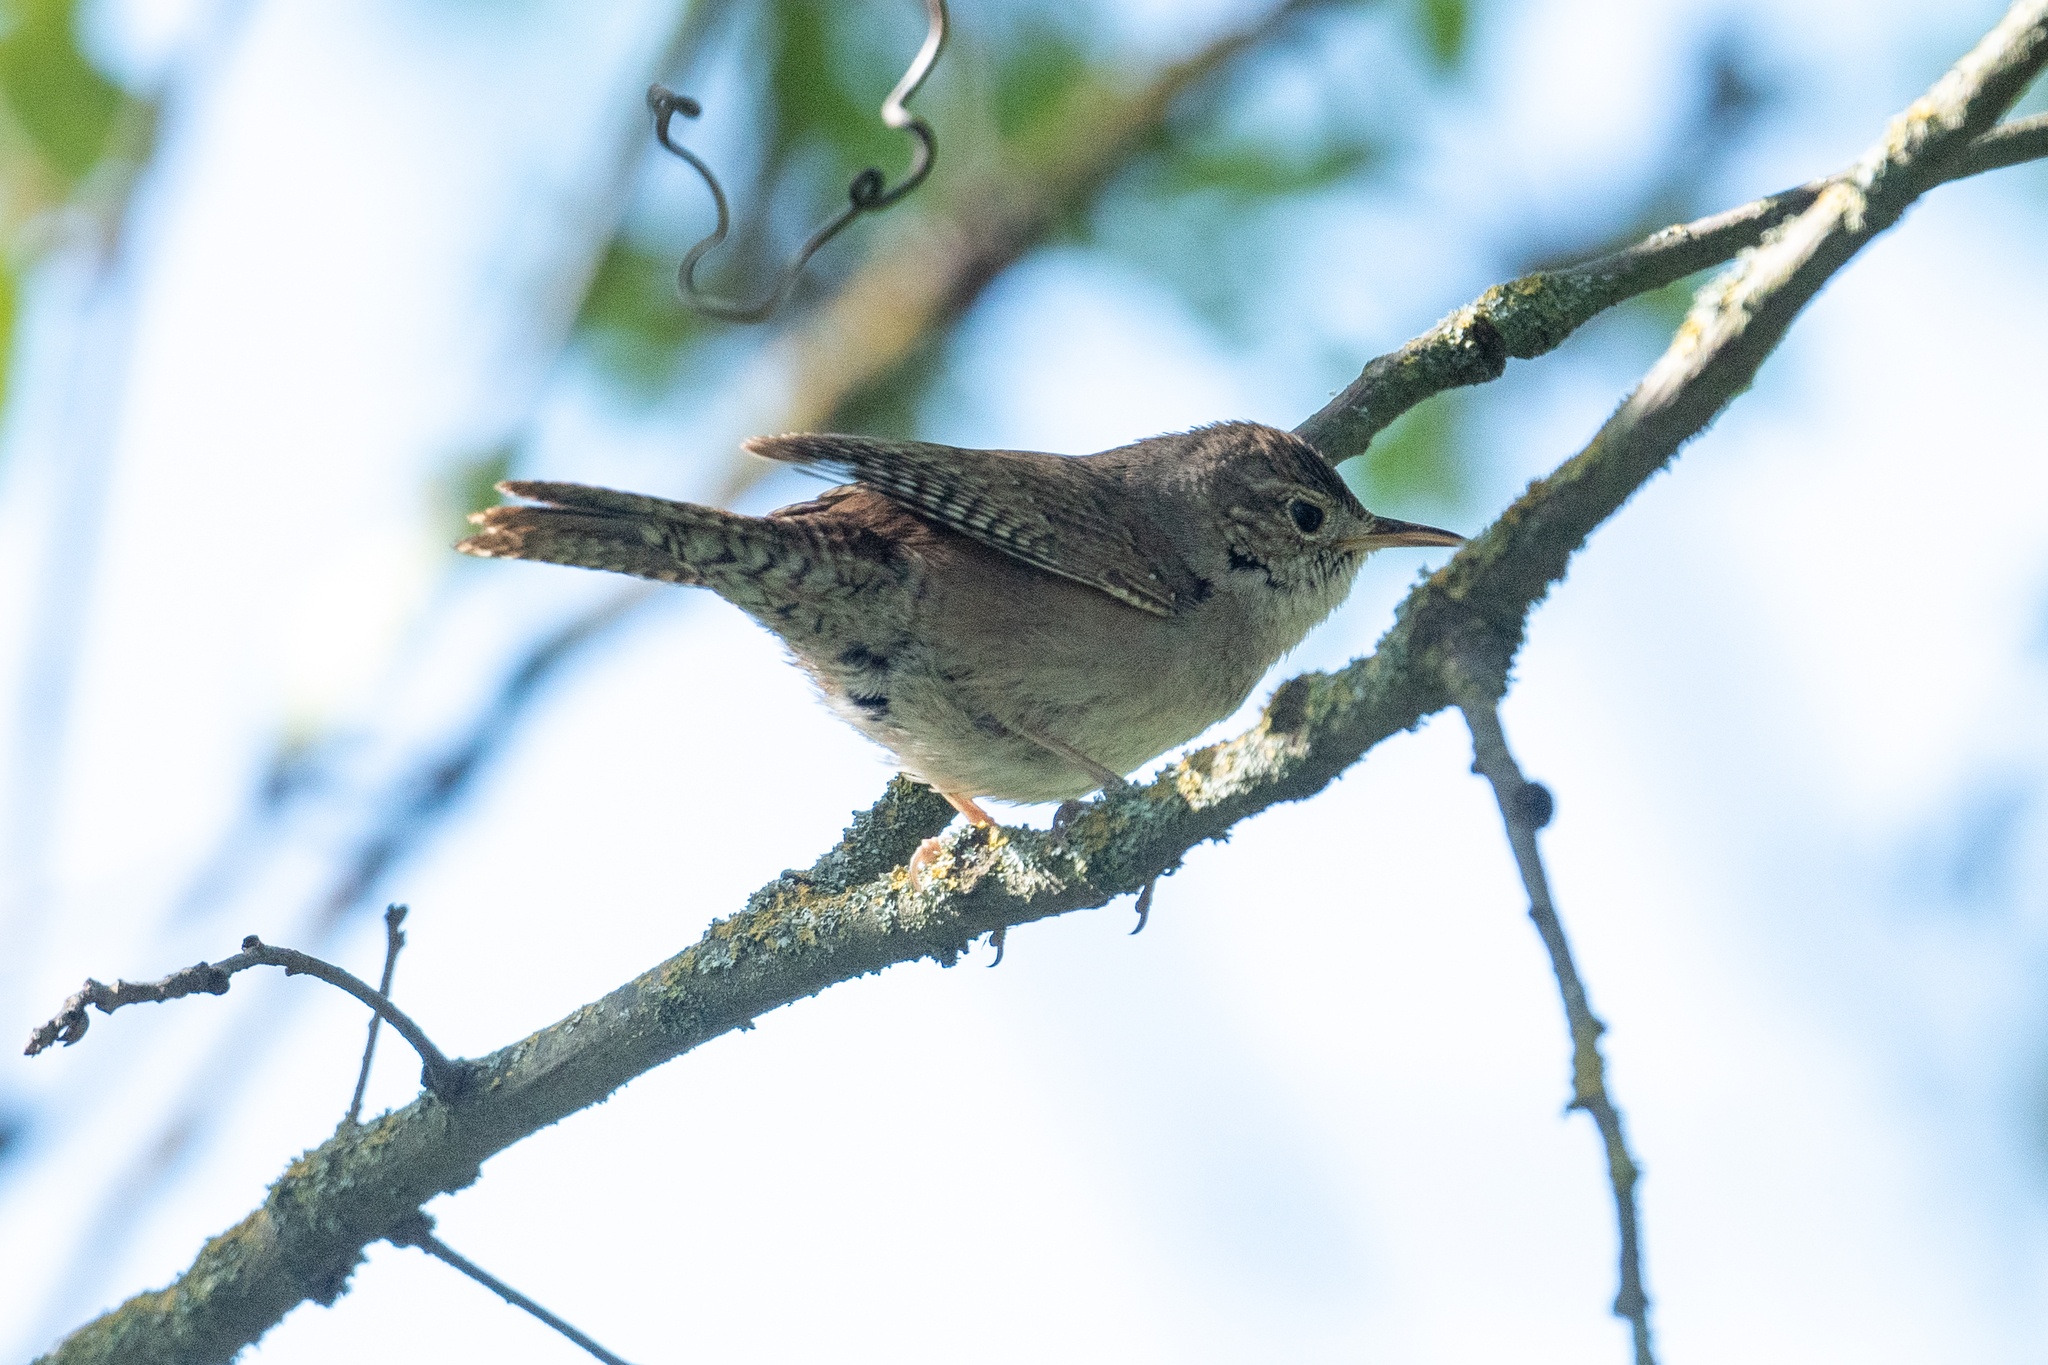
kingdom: Animalia
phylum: Chordata
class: Aves
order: Passeriformes
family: Troglodytidae
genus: Troglodytes
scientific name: Troglodytes aedon
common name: House wren
